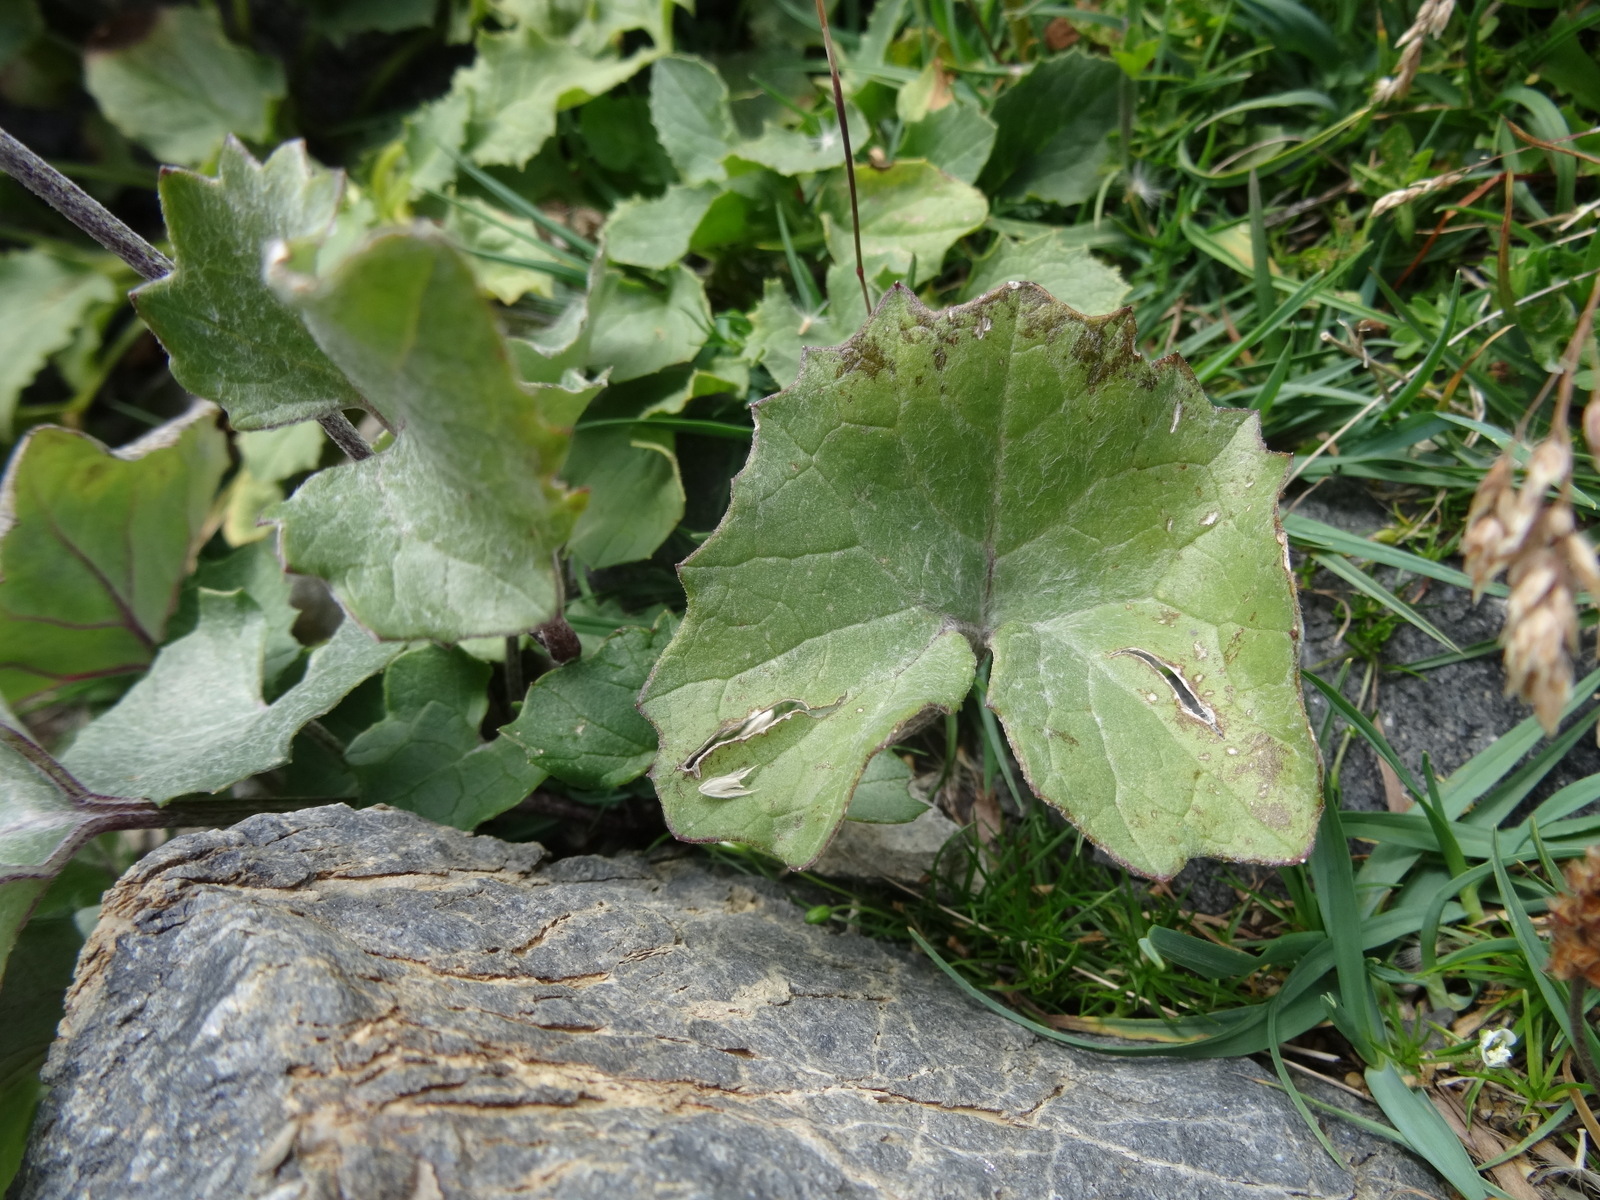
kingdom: Plantae
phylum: Tracheophyta
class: Magnoliopsida
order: Asterales
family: Asteraceae
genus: Adenostyles
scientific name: Adenostyles leucophylla
